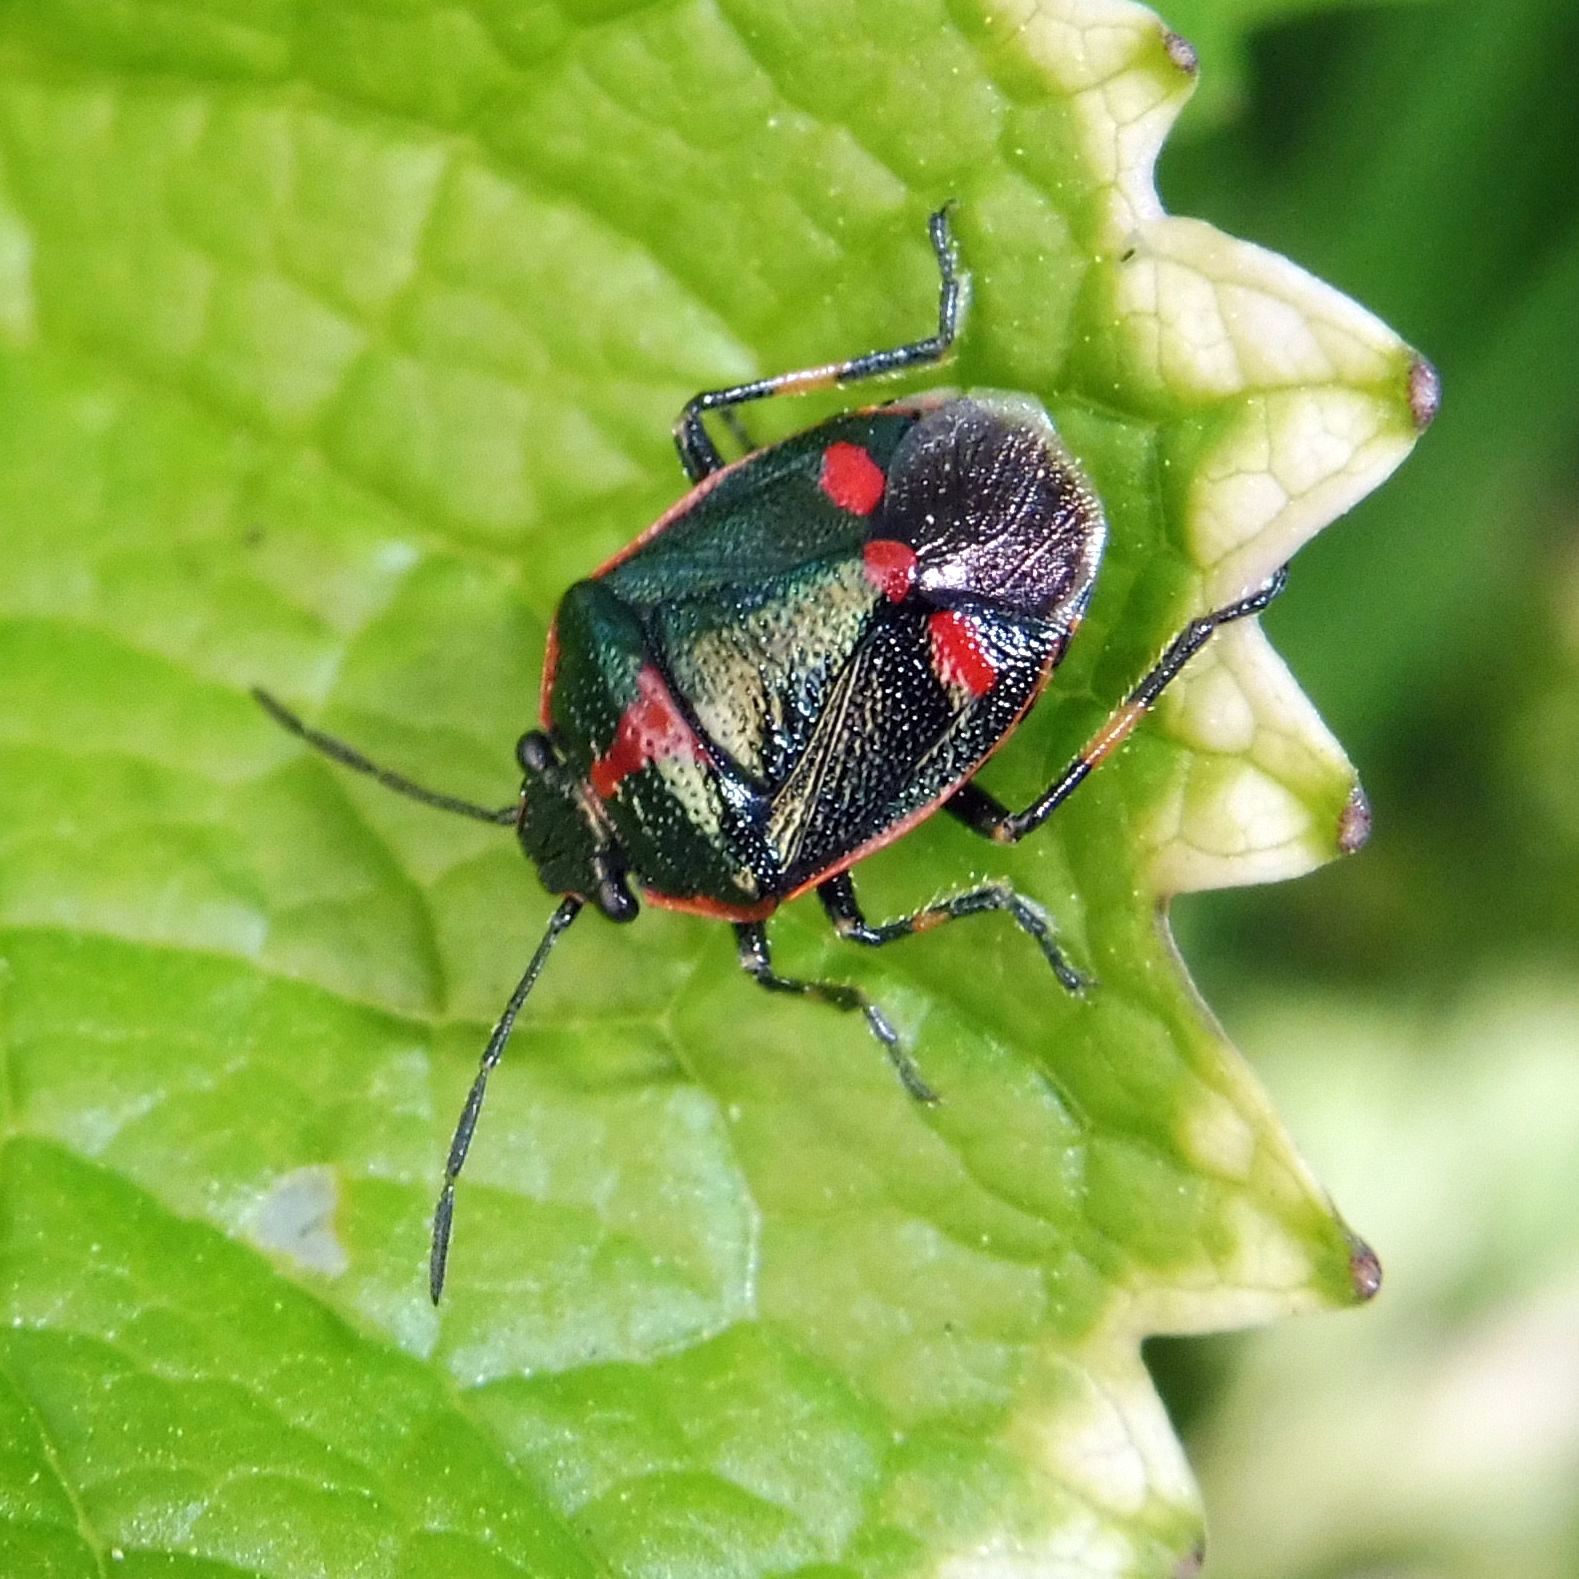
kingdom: Animalia
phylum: Arthropoda
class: Insecta
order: Hemiptera
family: Pentatomidae
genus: Eurydema
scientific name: Eurydema oleracea
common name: Cabbage bug
